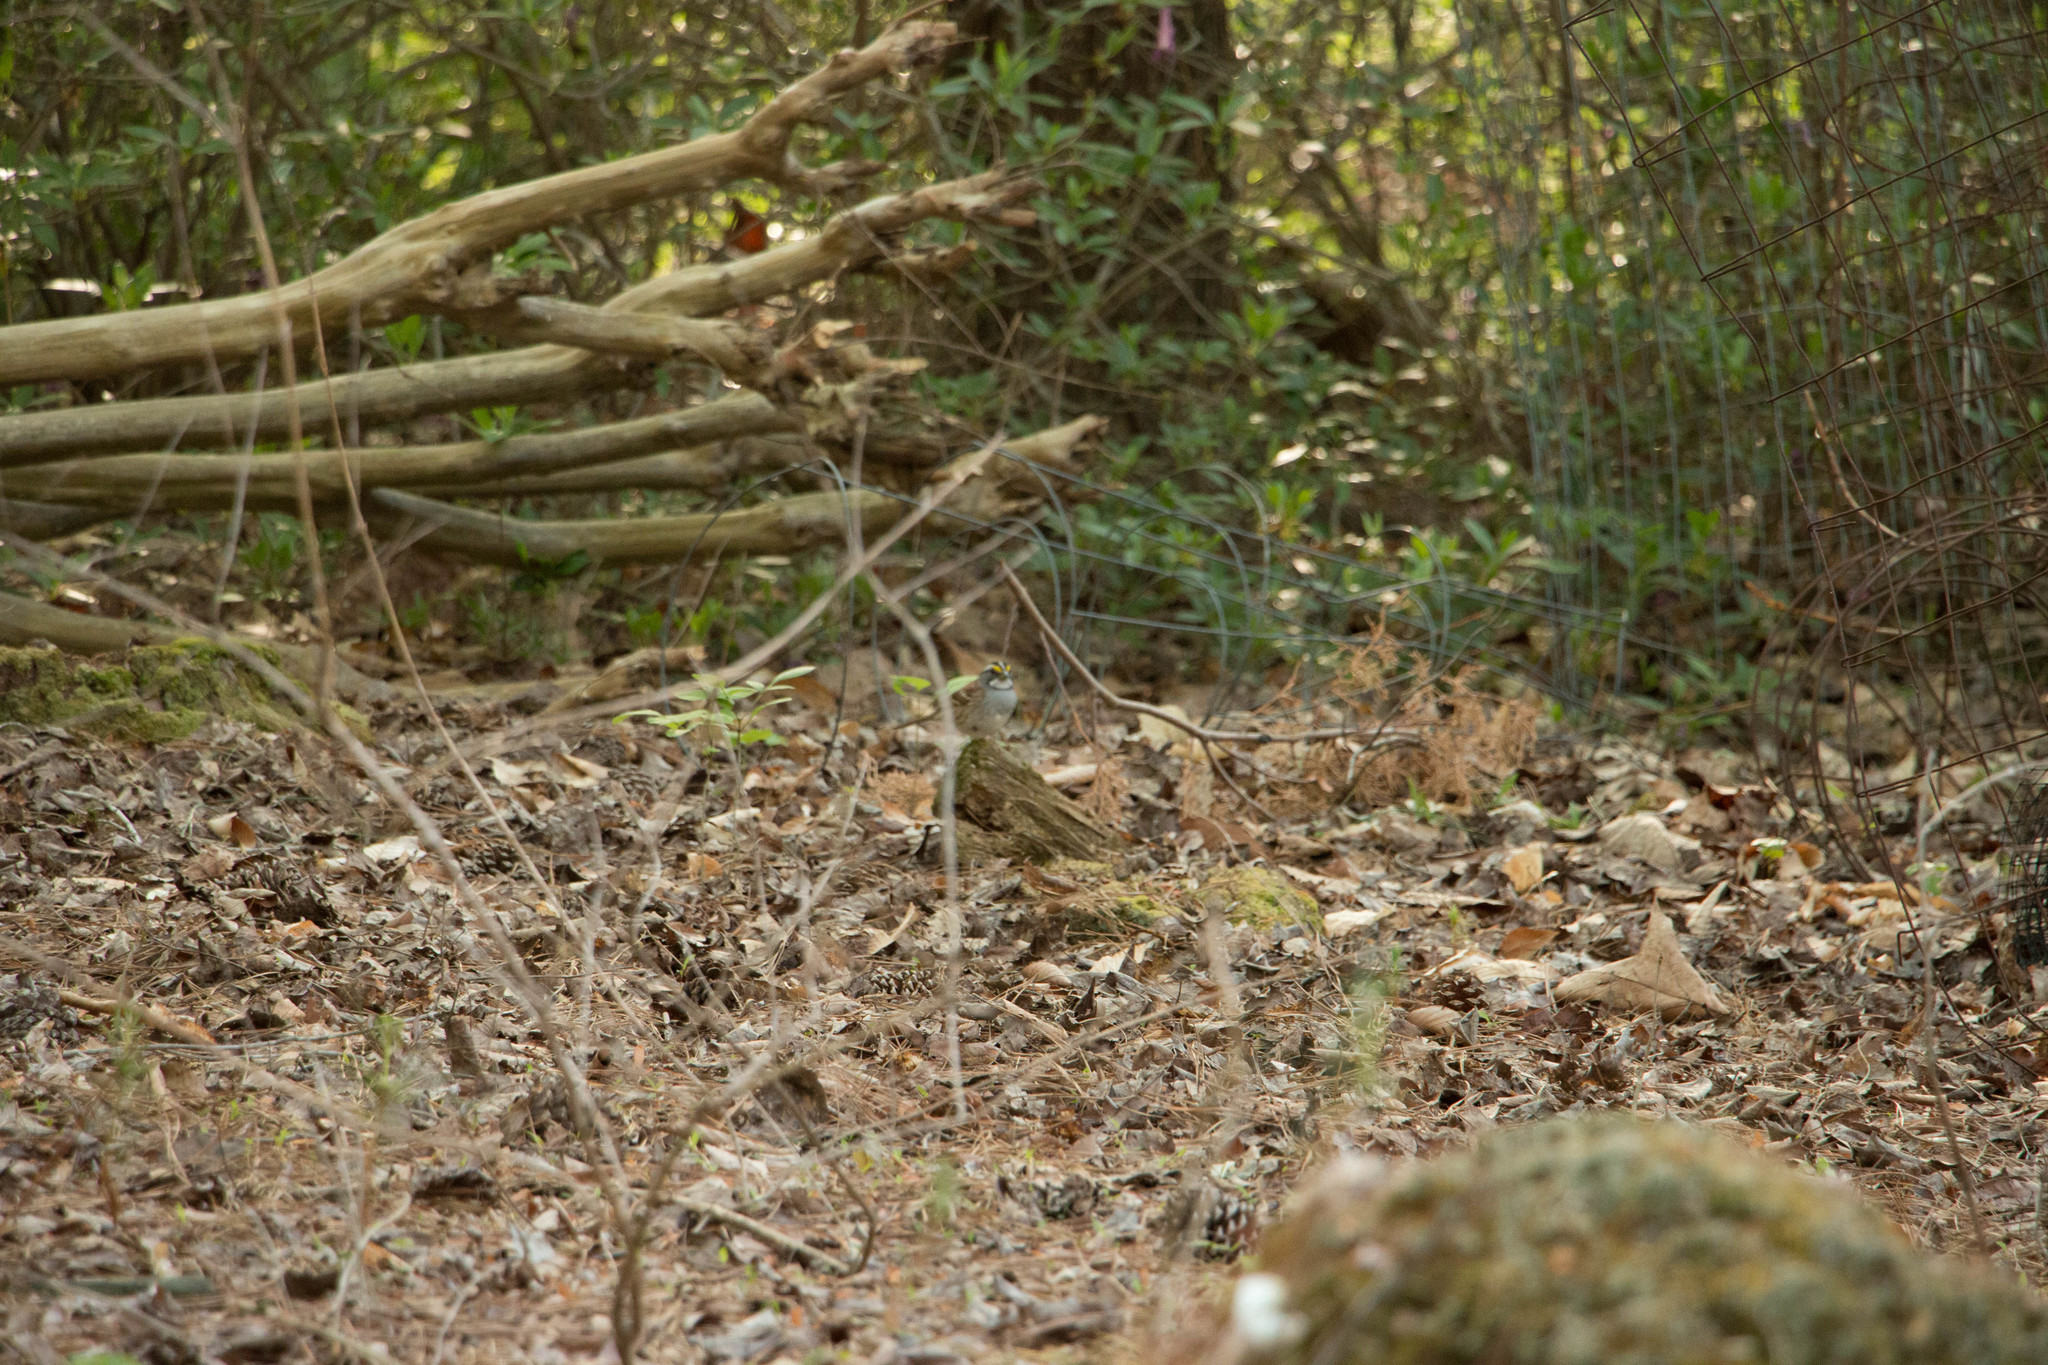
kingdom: Animalia
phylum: Chordata
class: Aves
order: Passeriformes
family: Passerellidae
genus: Zonotrichia
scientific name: Zonotrichia albicollis
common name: White-throated sparrow
